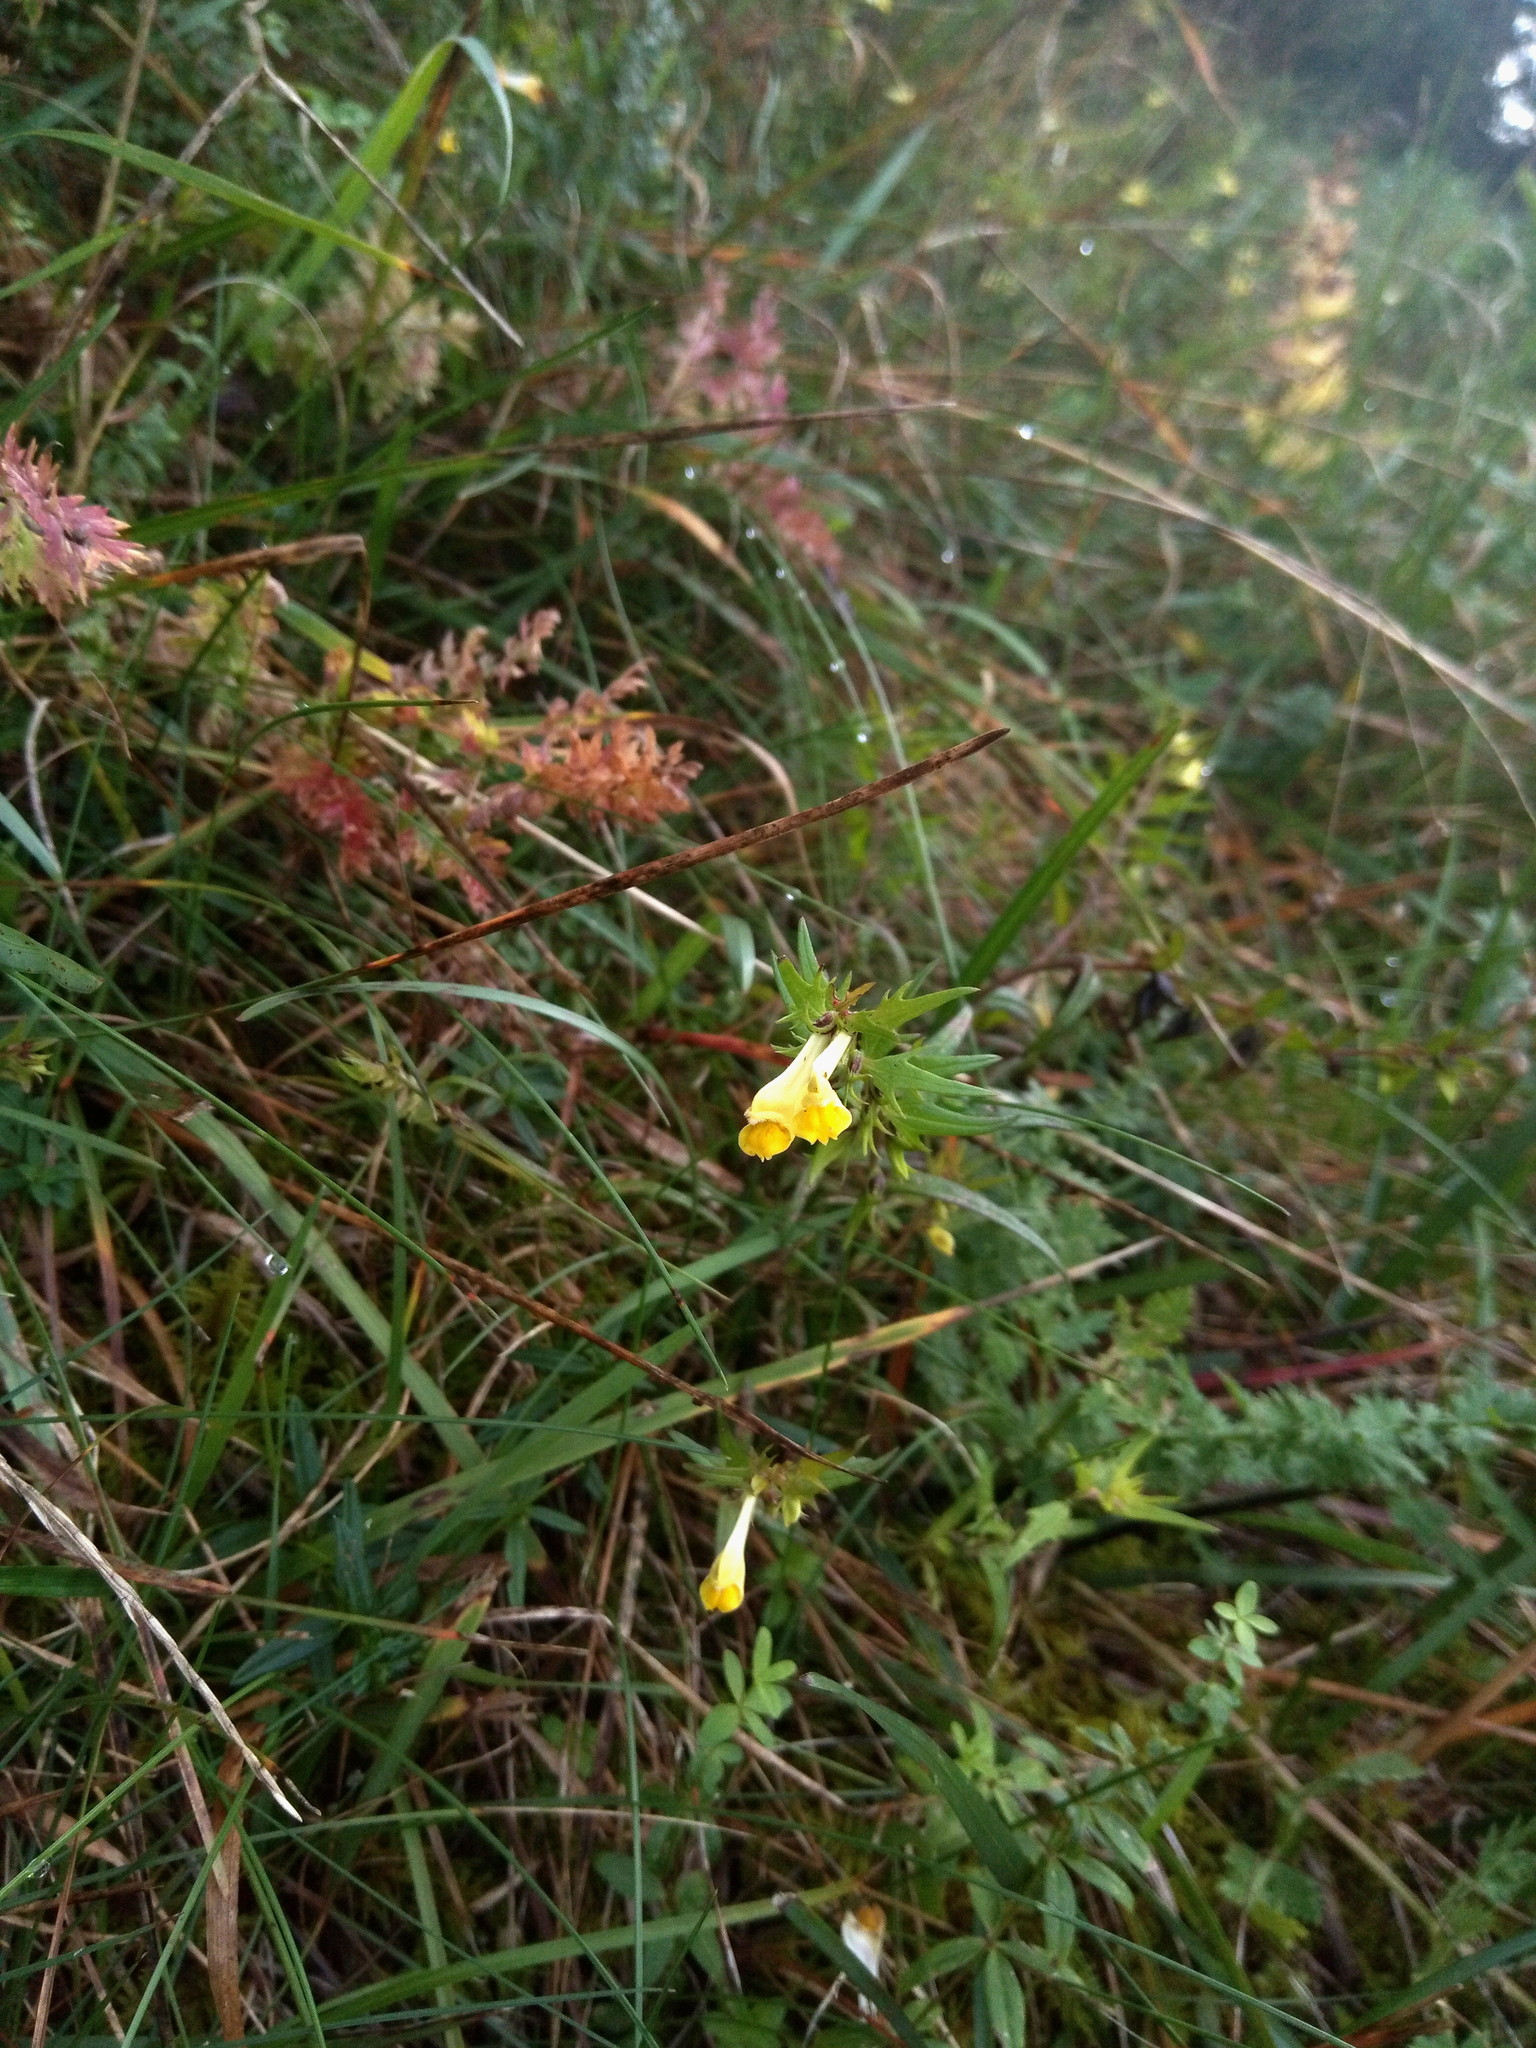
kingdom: Plantae
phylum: Tracheophyta
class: Magnoliopsida
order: Lamiales
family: Orobanchaceae
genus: Melampyrum
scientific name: Melampyrum pratense
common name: Common cow-wheat
